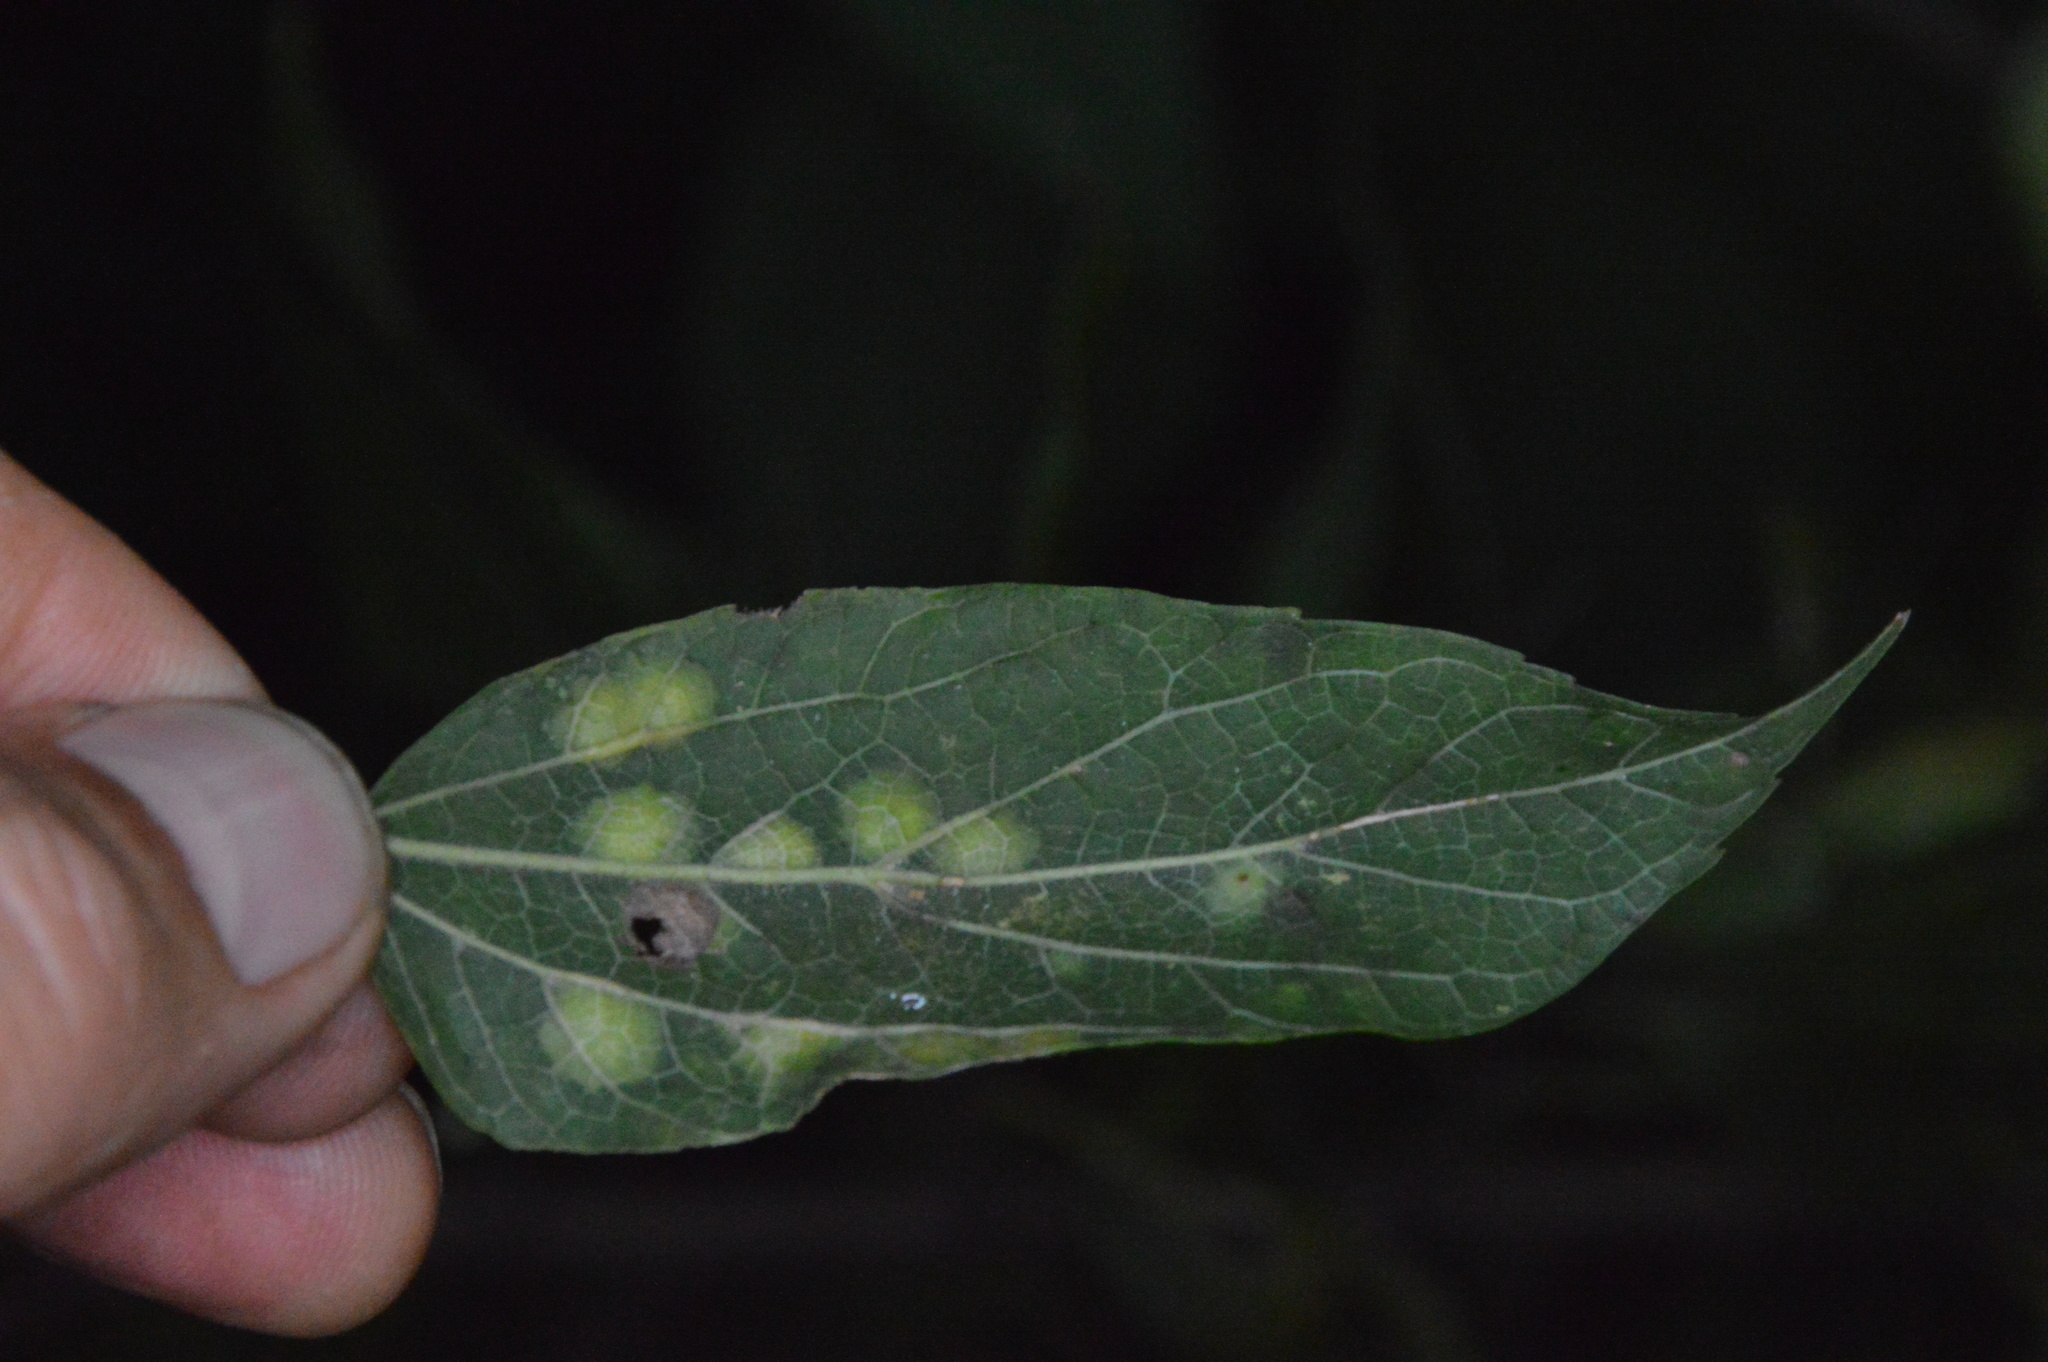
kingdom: Animalia
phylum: Arthropoda
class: Insecta
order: Hemiptera
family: Aphalaridae
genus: Pachypsylla
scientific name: Pachypsylla celtidisvesicula
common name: Hackberry blister gall psyllid
